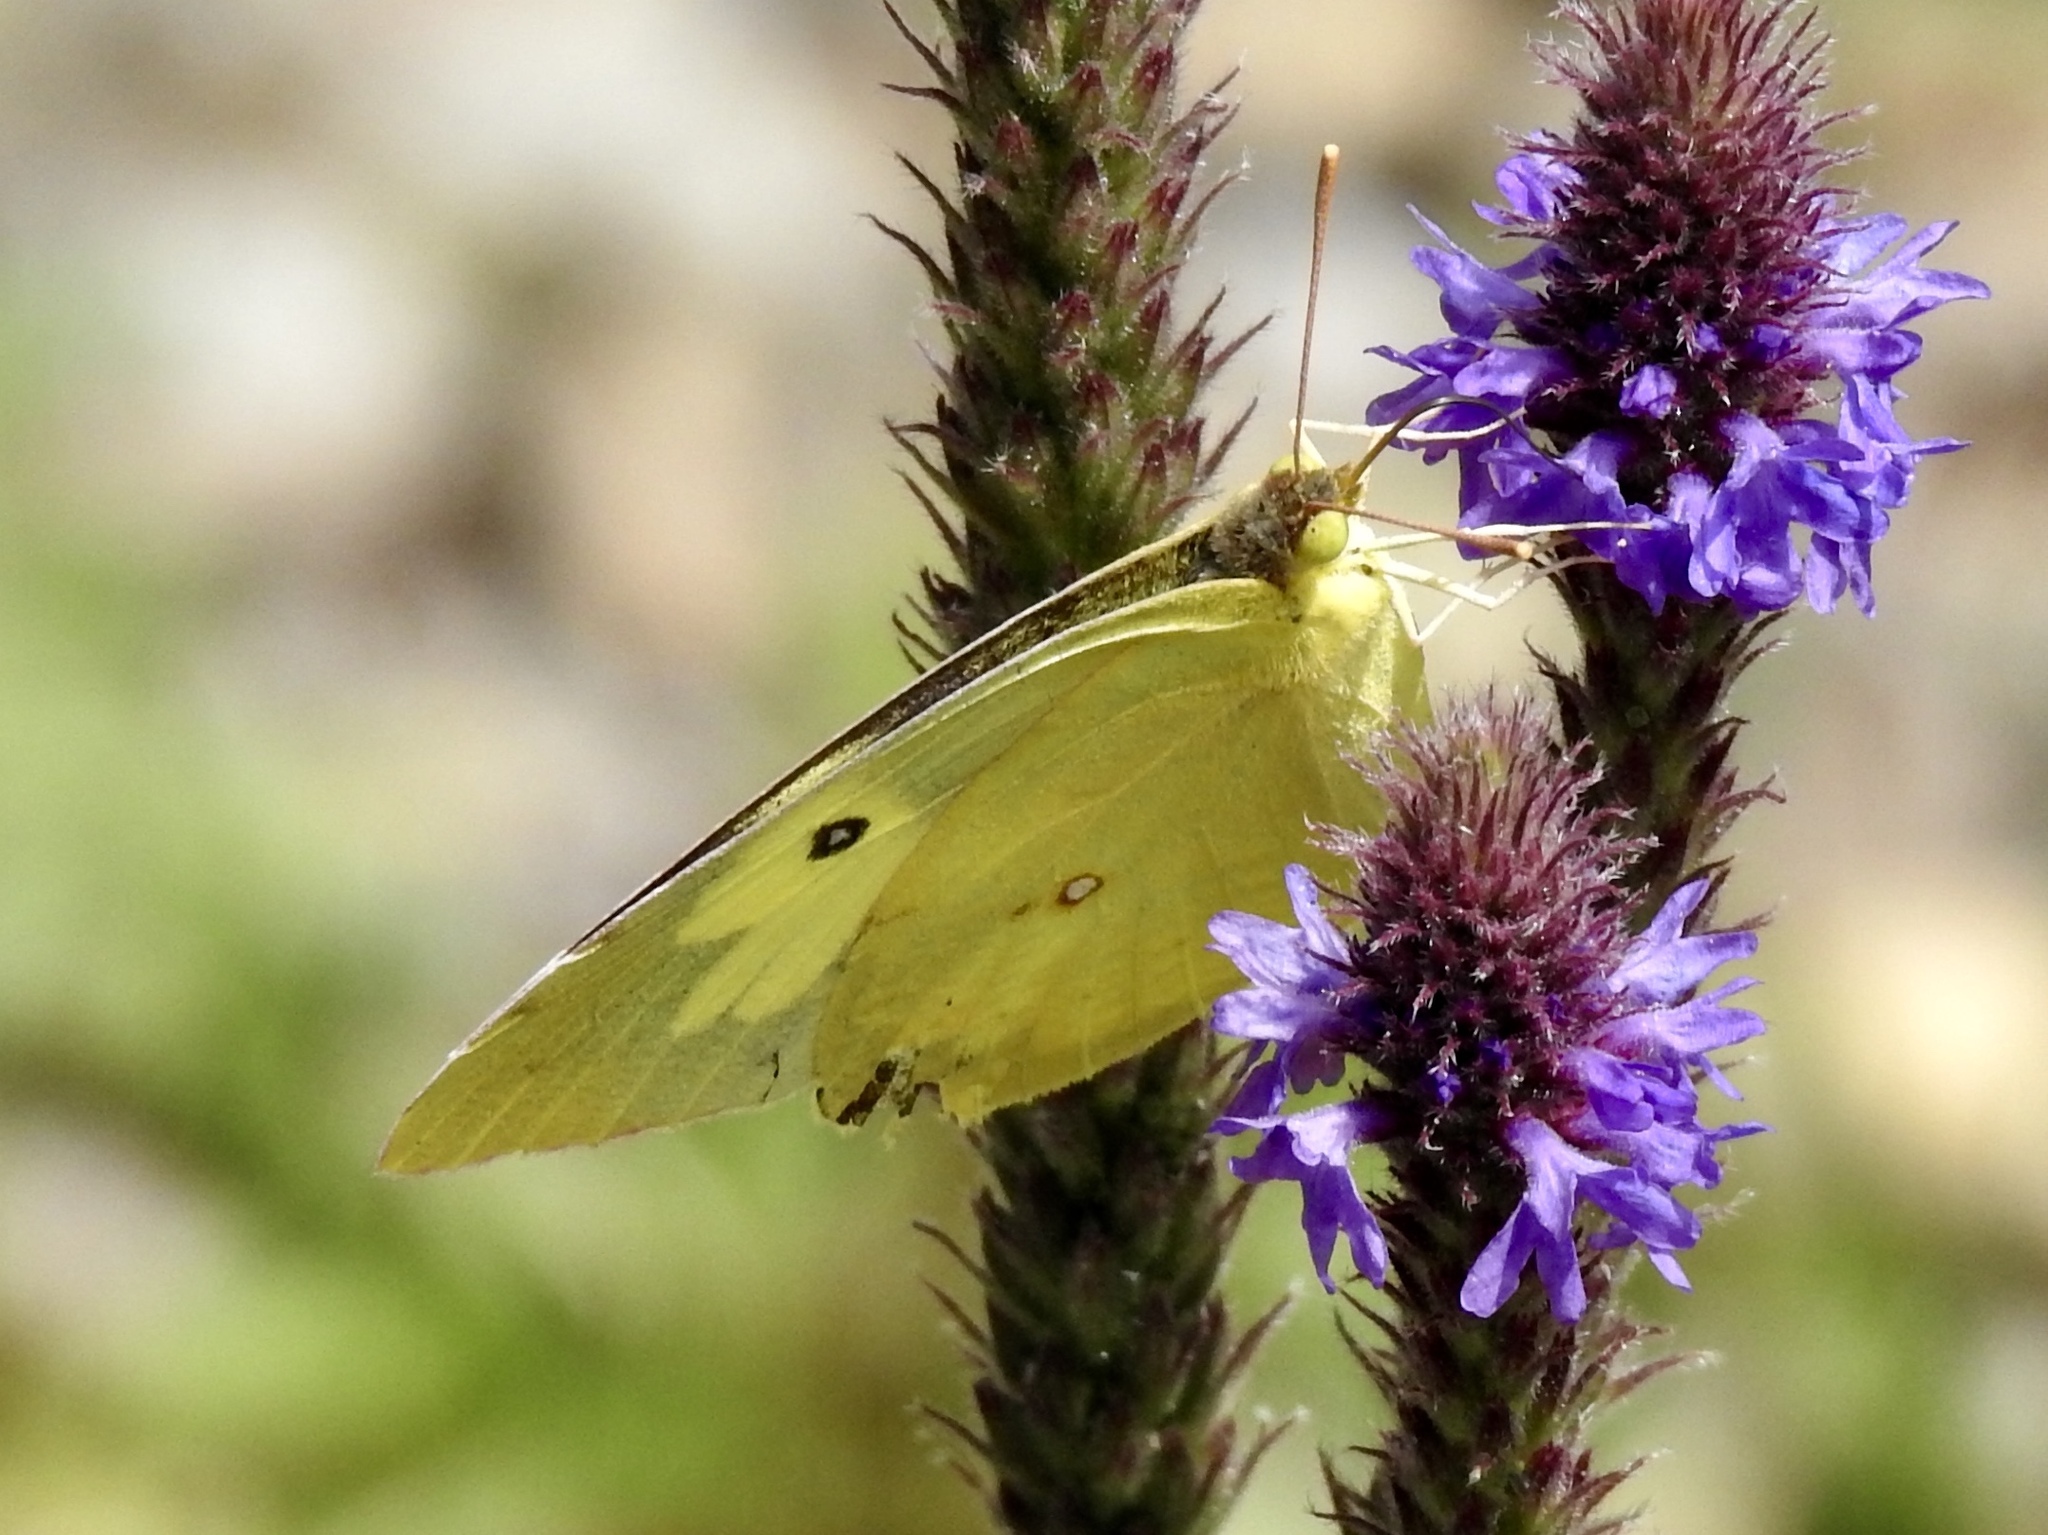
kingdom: Animalia
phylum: Arthropoda
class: Insecta
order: Lepidoptera
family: Pieridae
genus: Colias
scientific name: Colias eurytheme
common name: Alfalfa butterfly
